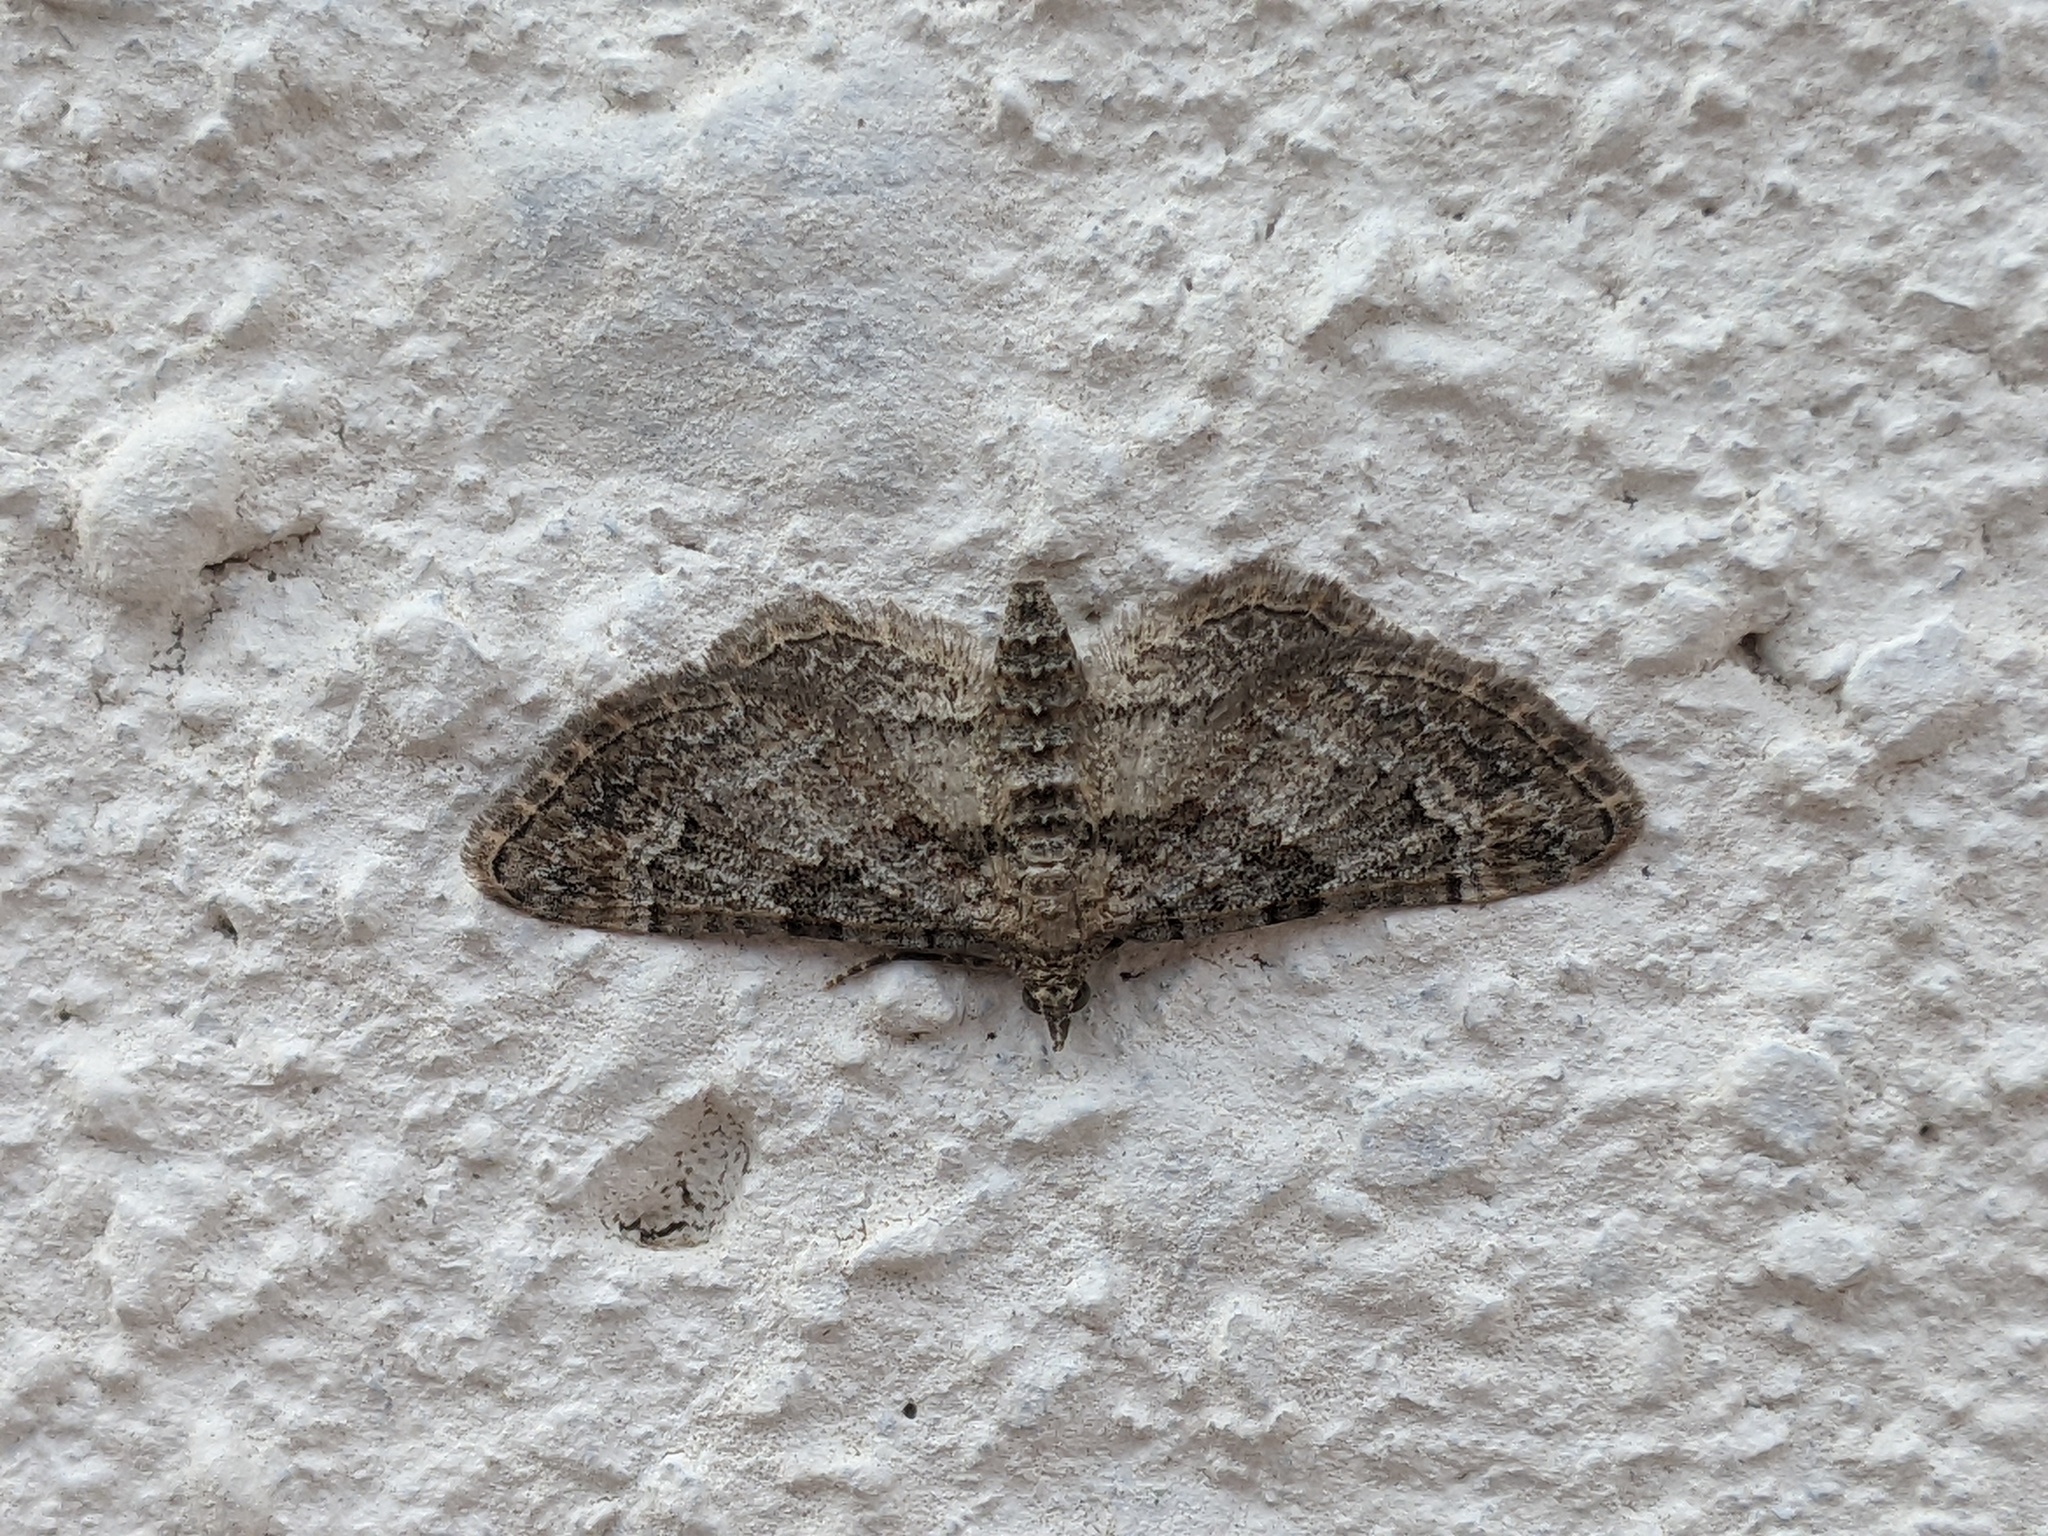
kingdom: Animalia
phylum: Arthropoda
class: Insecta
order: Lepidoptera
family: Geometridae
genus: Gymnoscelis
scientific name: Gymnoscelis rufifasciata
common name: Double-striped pug
